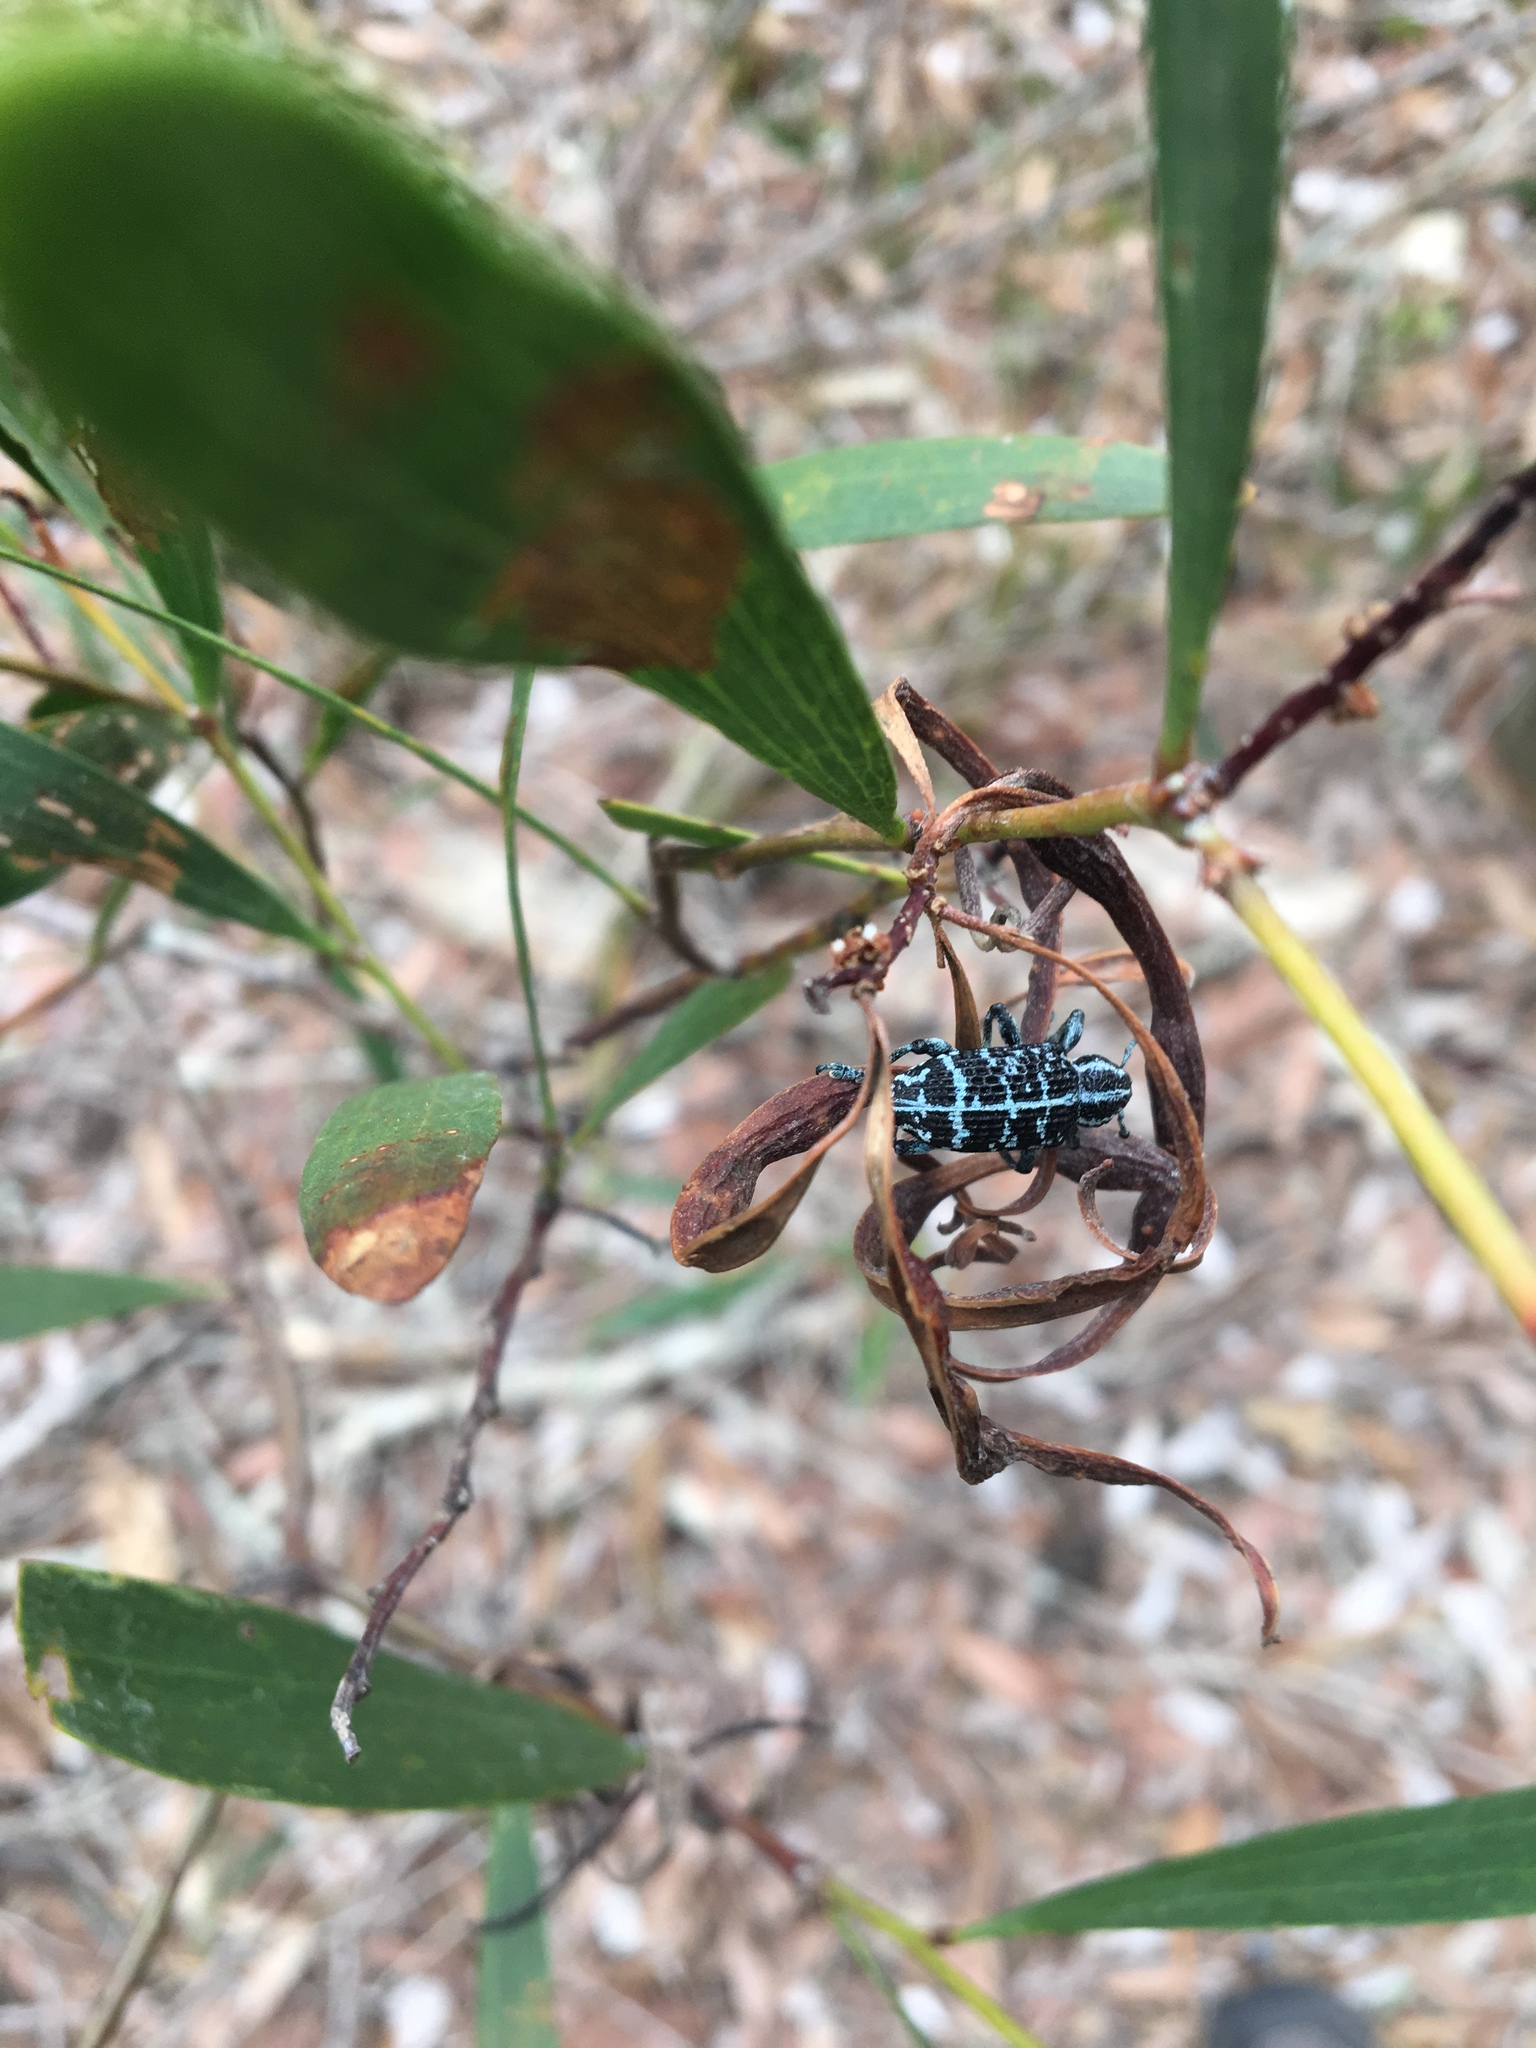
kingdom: Animalia
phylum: Arthropoda
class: Insecta
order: Coleoptera
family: Curculionidae
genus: Chrysolopus
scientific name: Chrysolopus spectabilis
